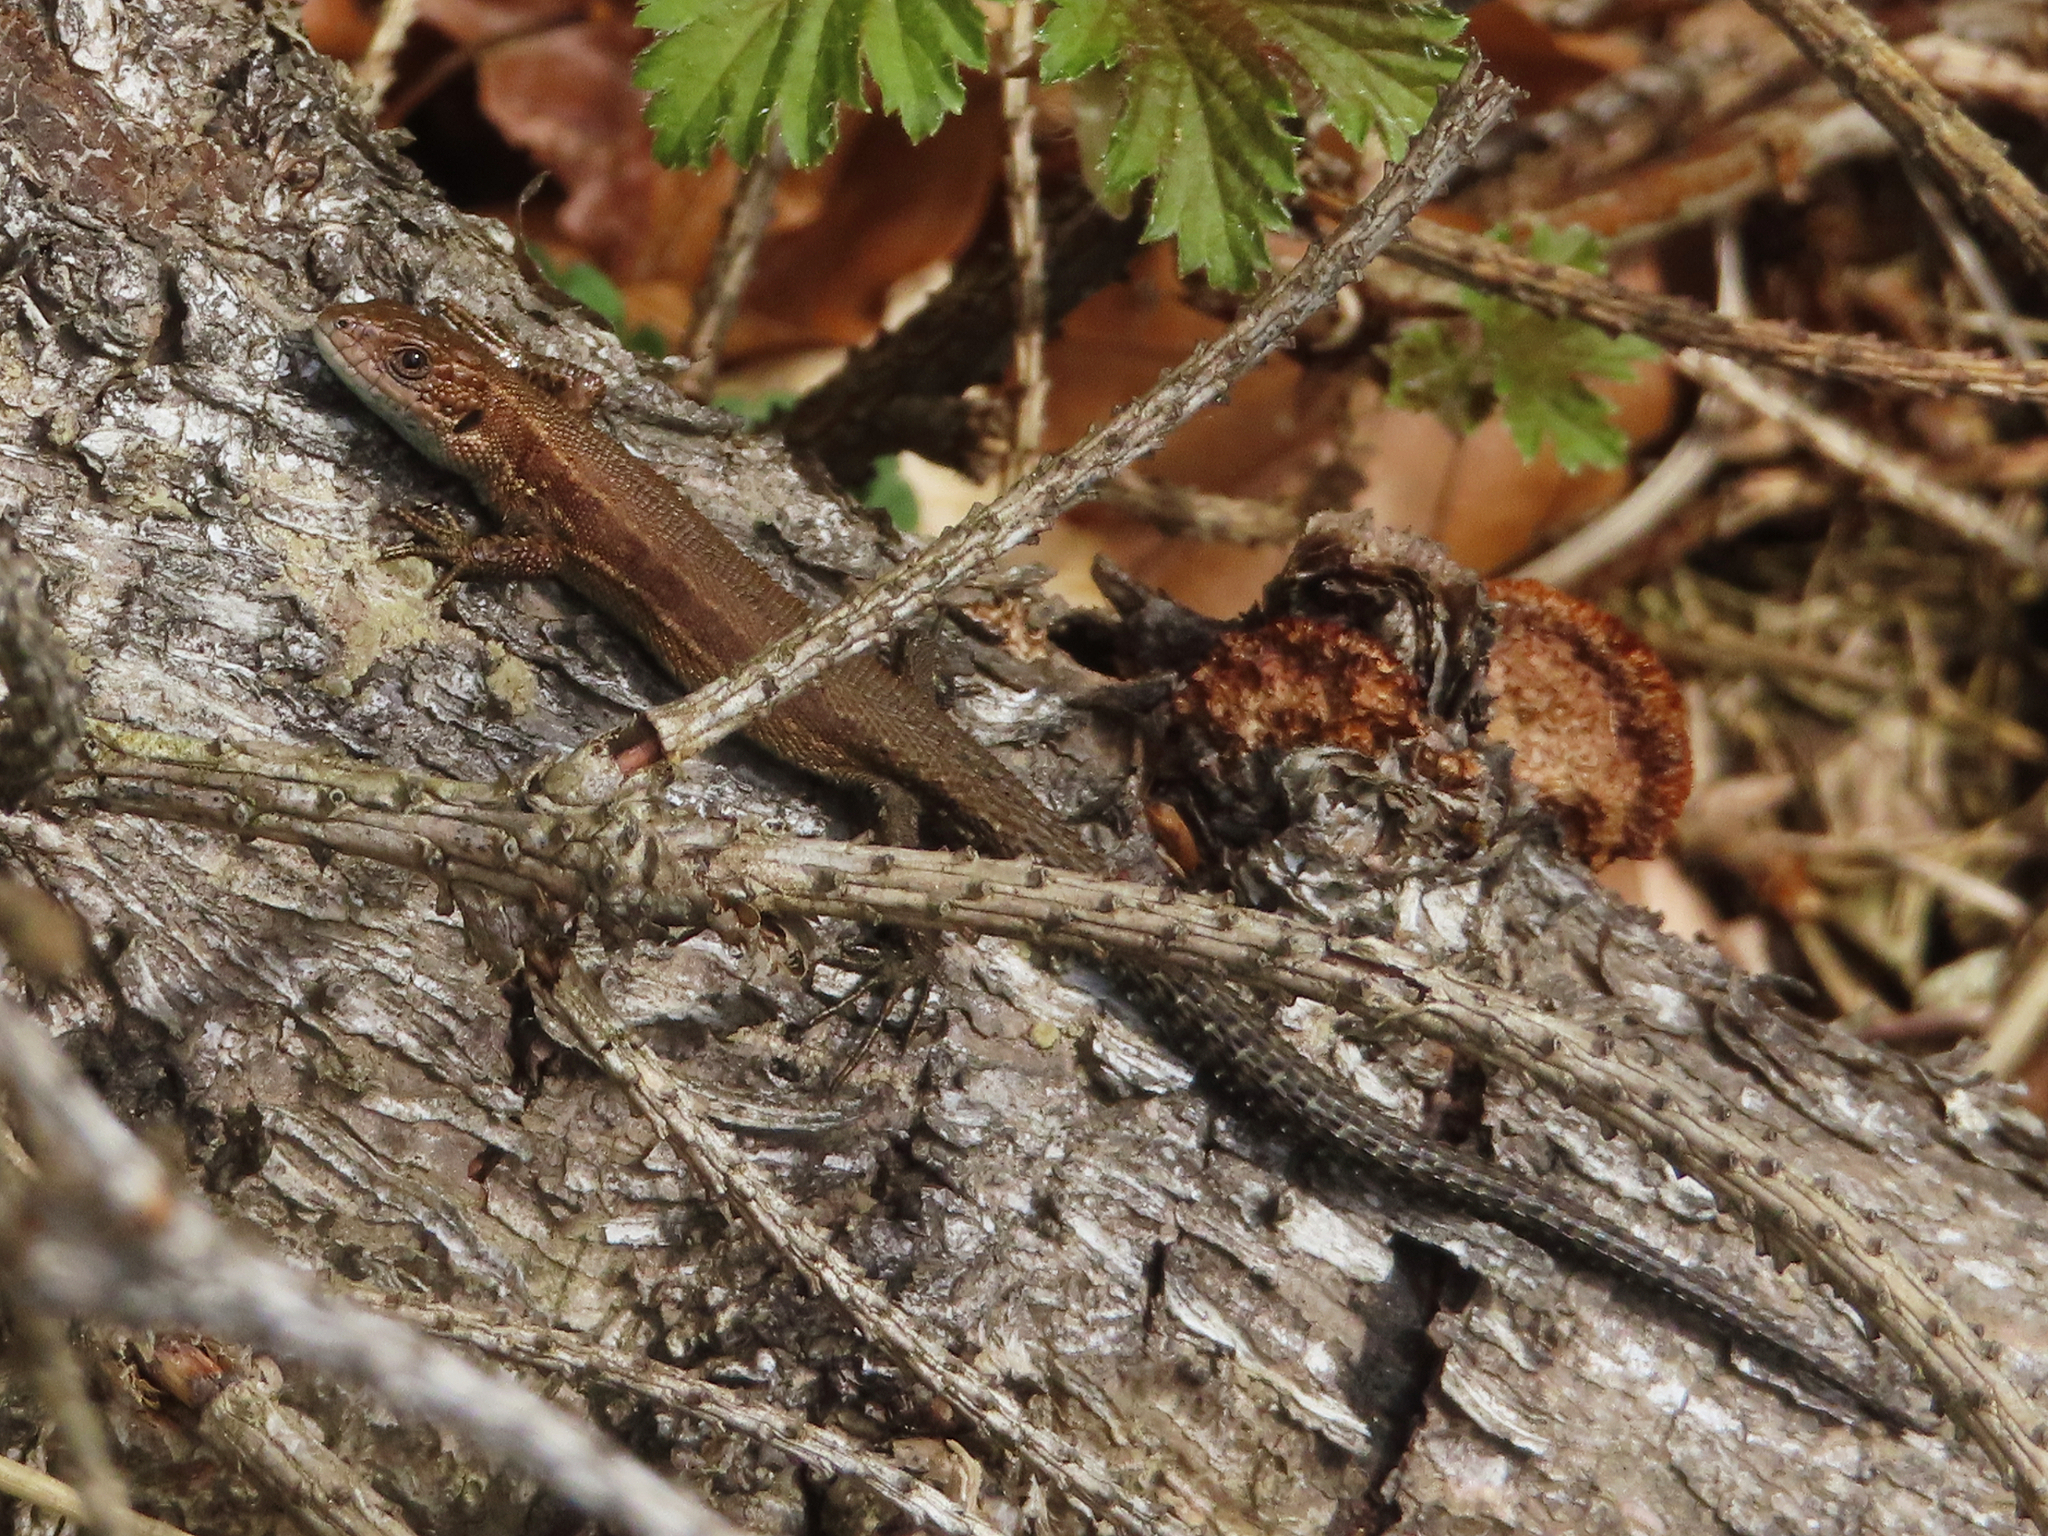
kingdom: Animalia
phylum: Chordata
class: Squamata
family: Lacertidae
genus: Zootoca
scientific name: Zootoca vivipara
